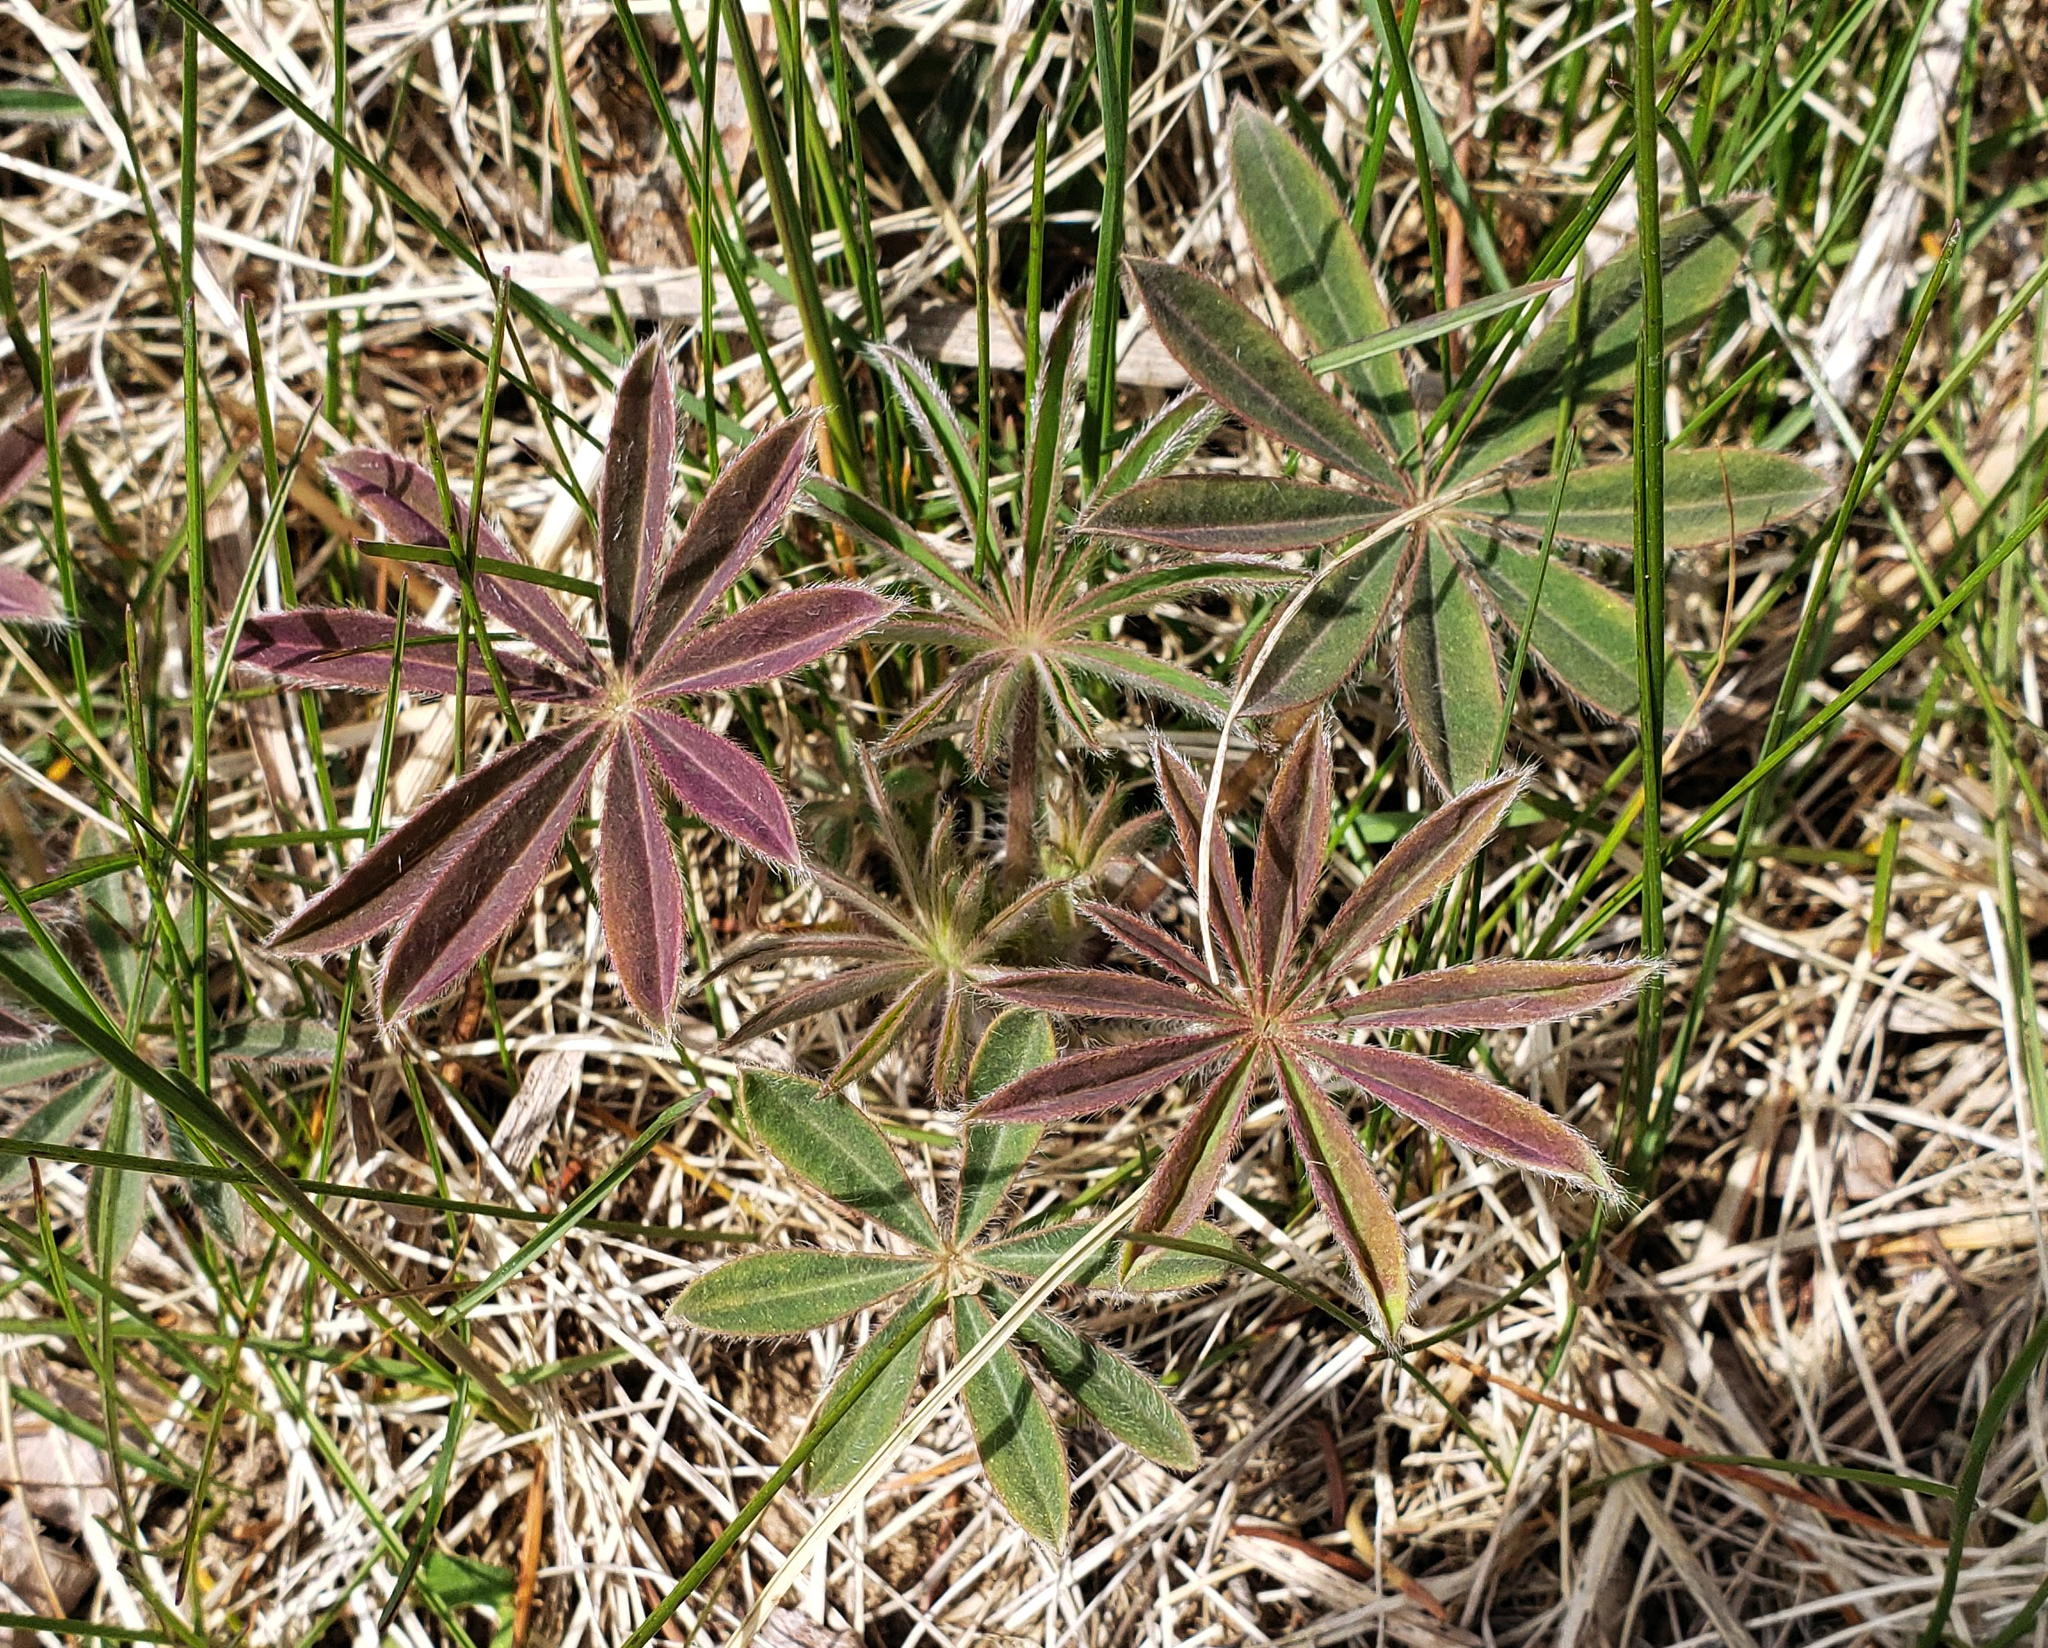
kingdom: Plantae
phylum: Tracheophyta
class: Magnoliopsida
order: Fabales
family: Fabaceae
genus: Lupinus
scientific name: Lupinus perennis
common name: Sundial lupine
